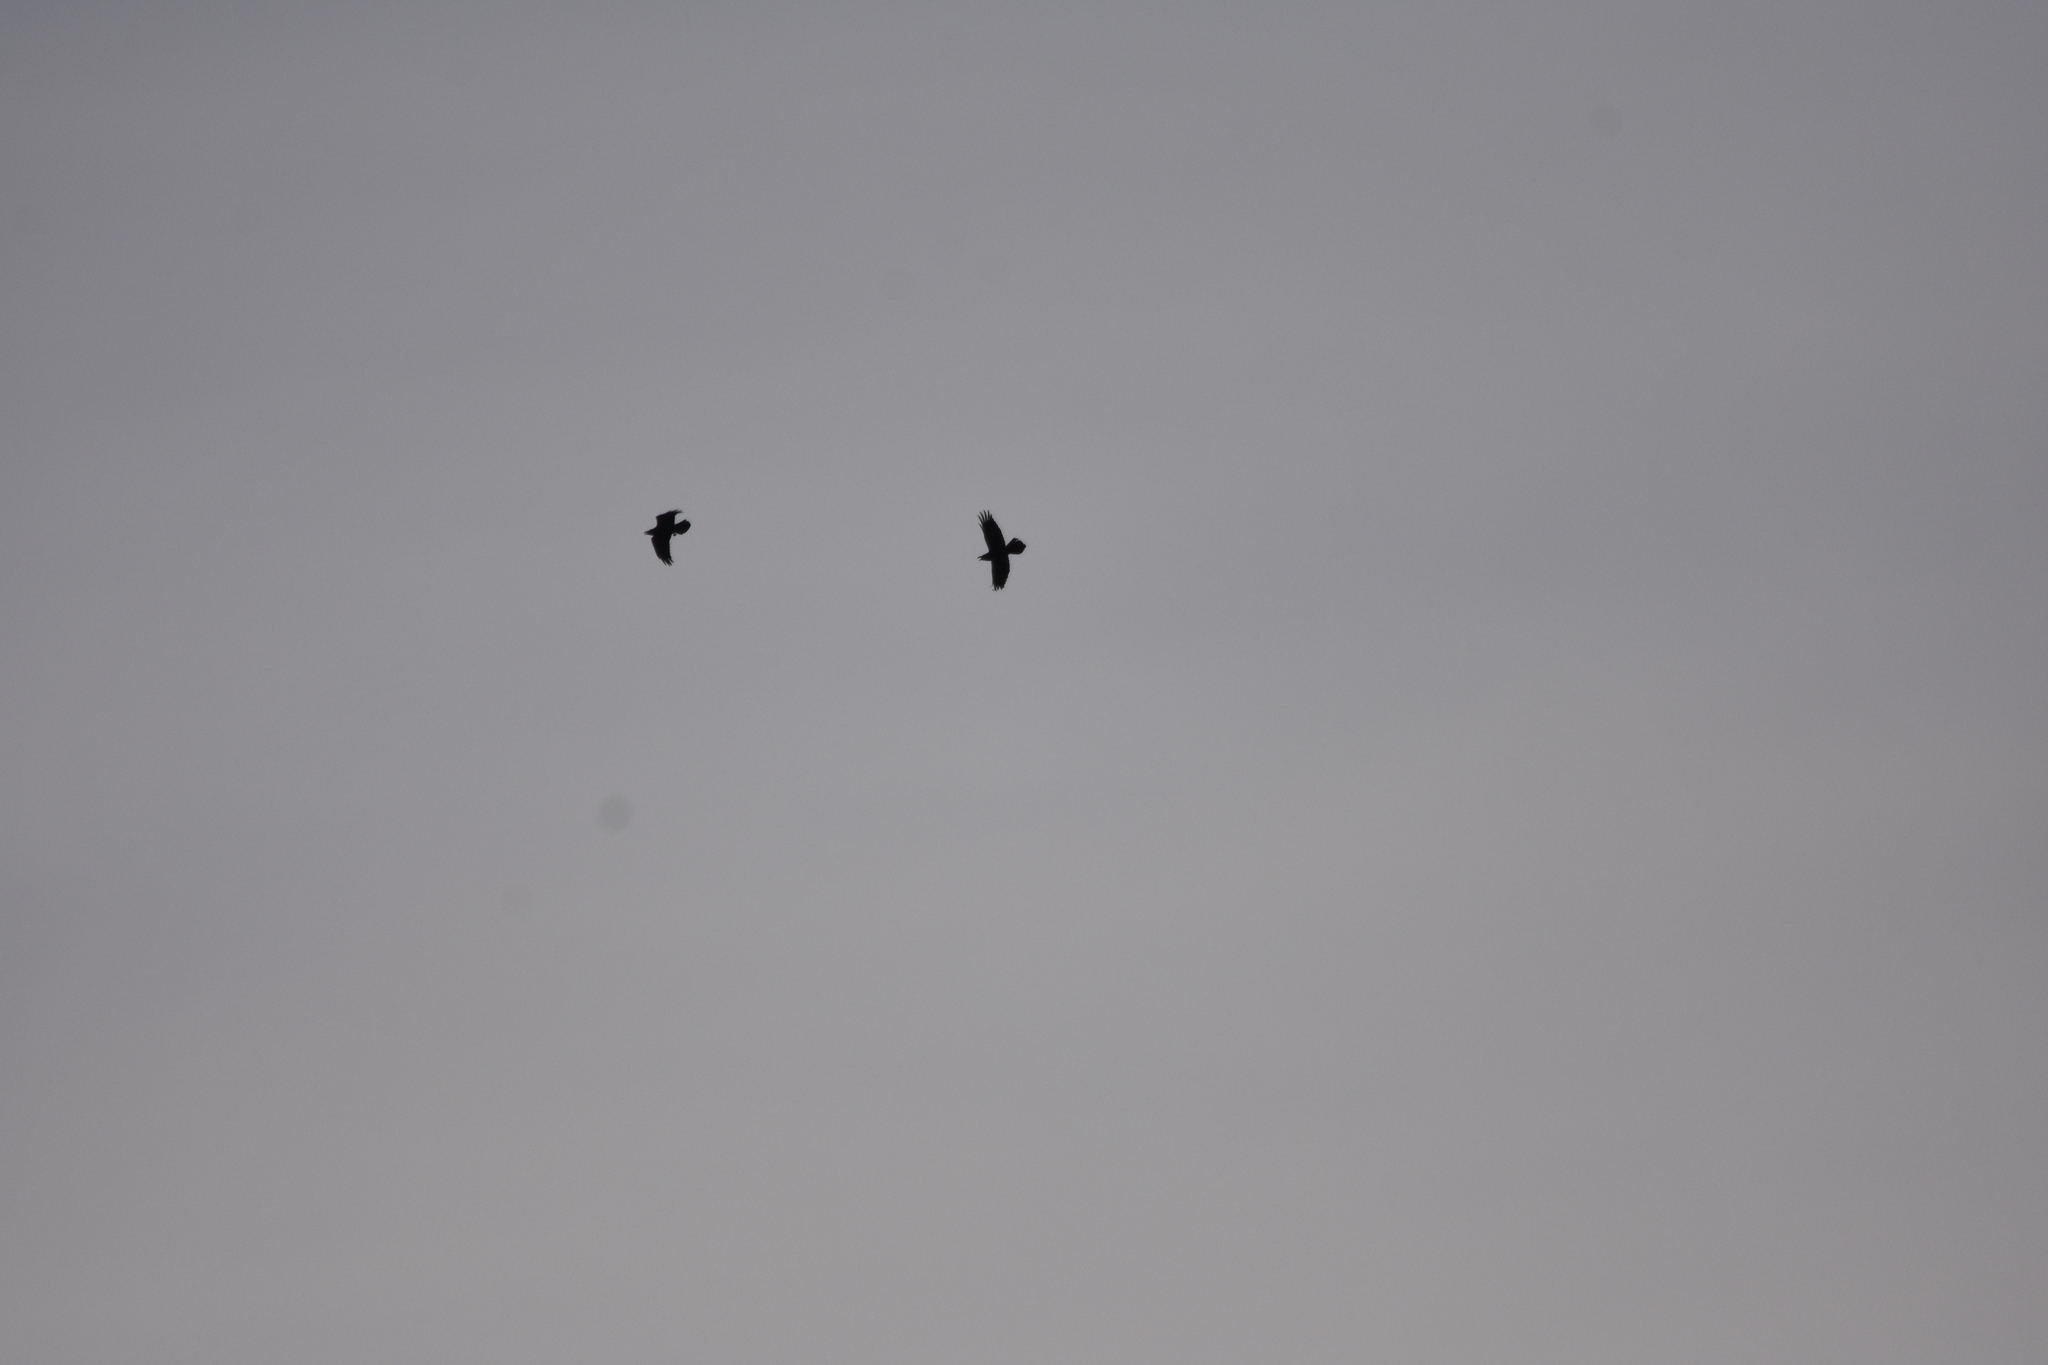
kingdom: Animalia
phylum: Chordata
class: Aves
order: Passeriformes
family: Corvidae
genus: Corvus
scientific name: Corvus corax
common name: Common raven
